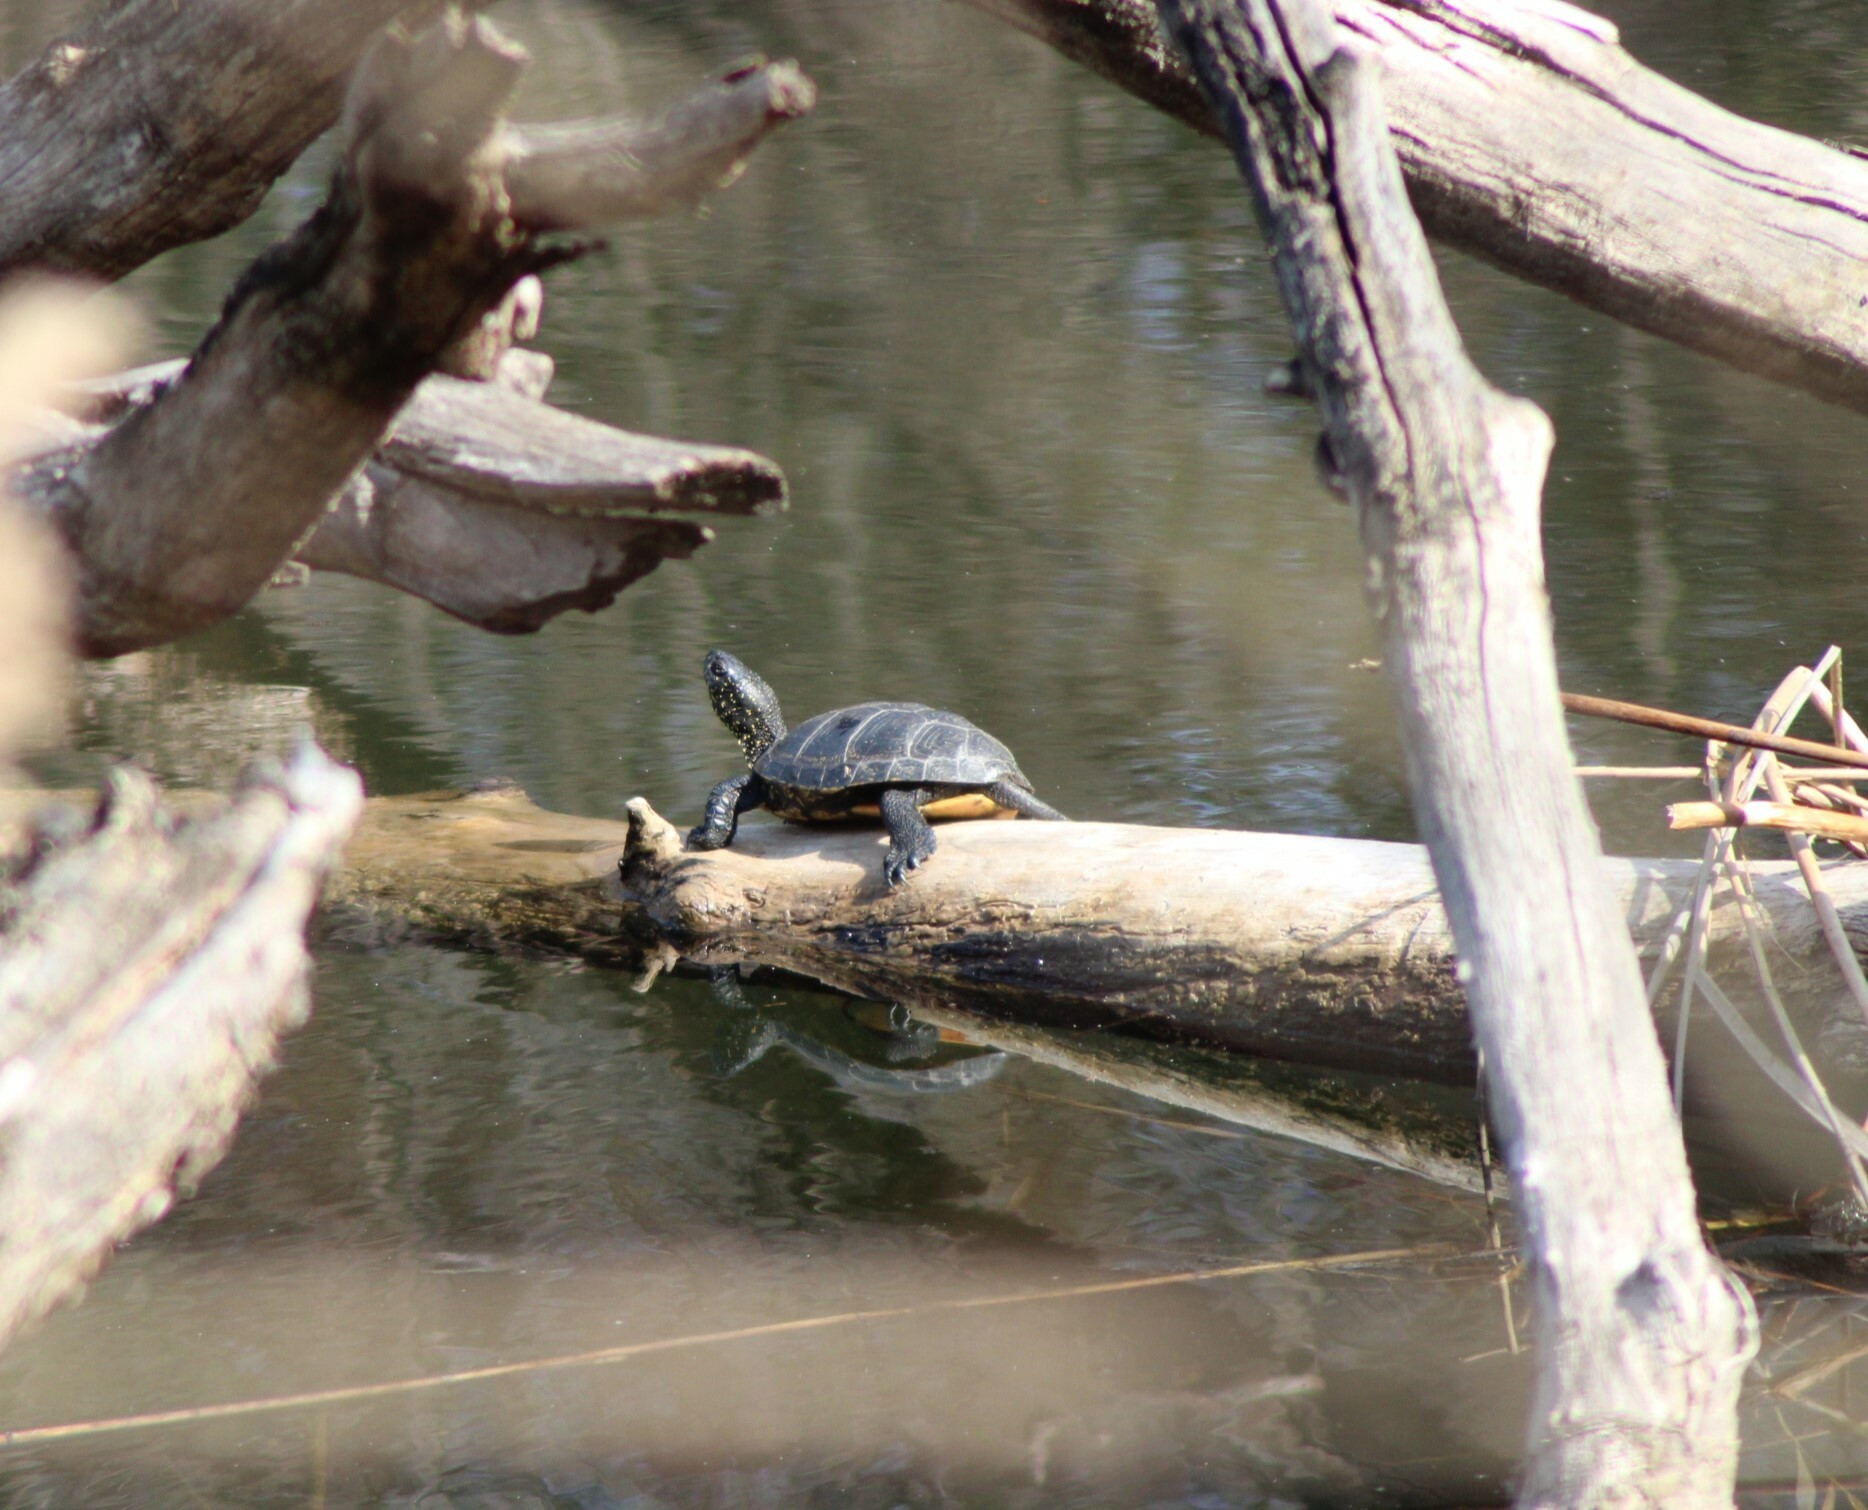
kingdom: Animalia
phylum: Chordata
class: Testudines
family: Emydidae
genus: Emys
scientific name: Emys orbicularis
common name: European pond turtle
